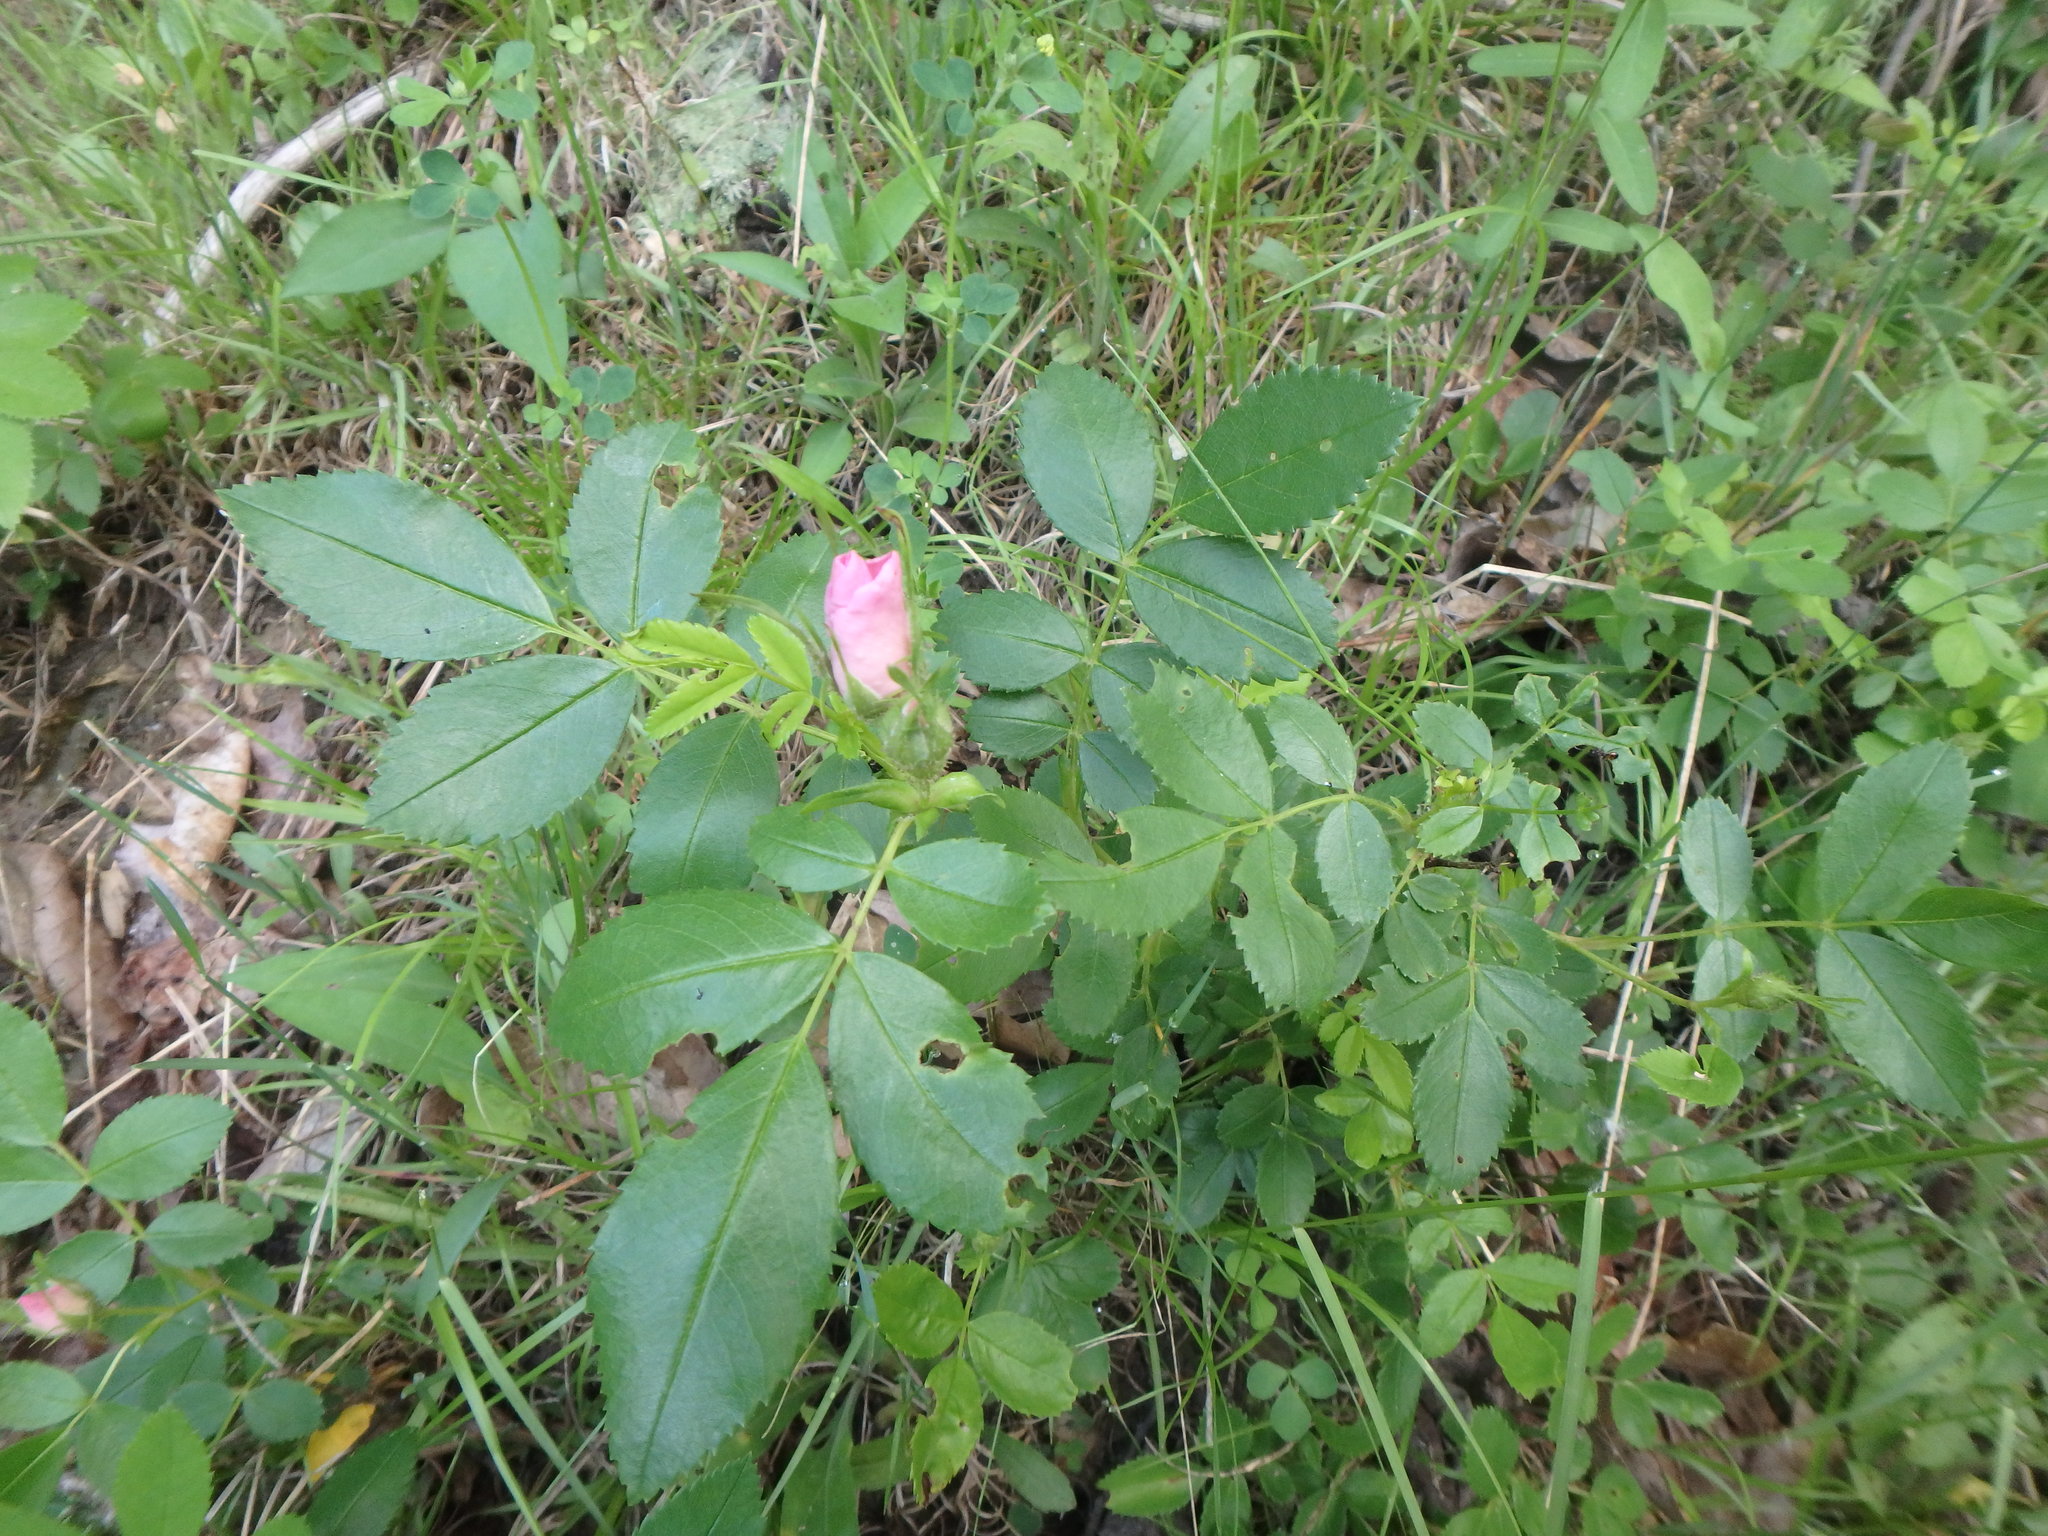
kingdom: Plantae
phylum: Tracheophyta
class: Magnoliopsida
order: Rosales
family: Rosaceae
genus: Rosa
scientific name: Rosa carolina
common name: Pasture rose
